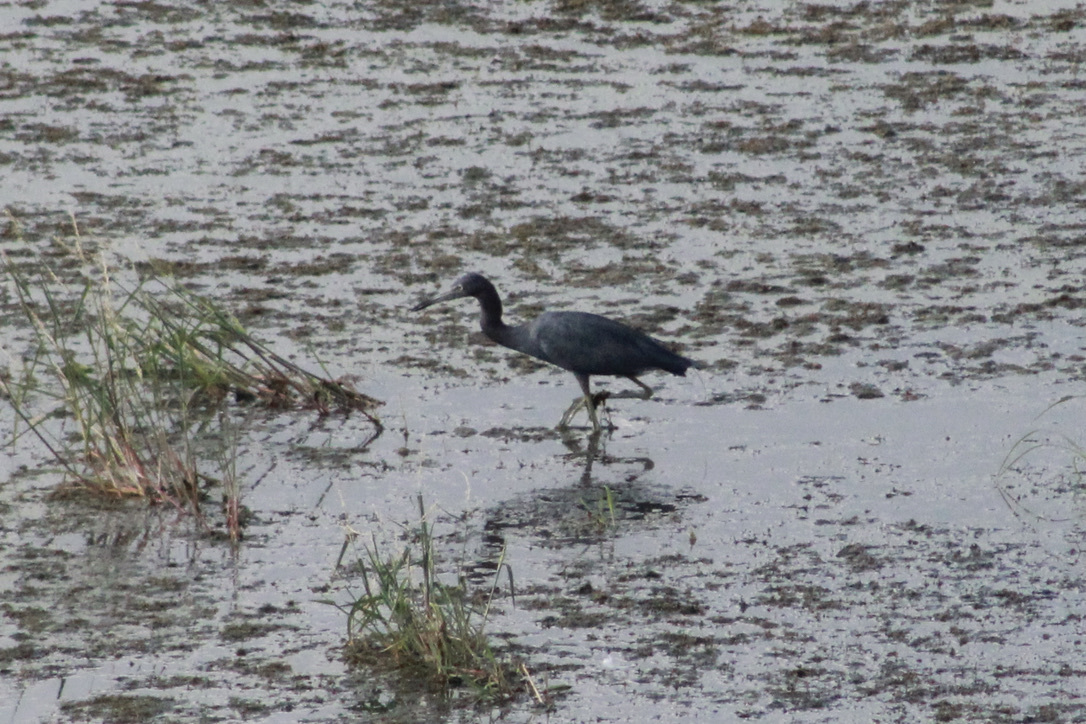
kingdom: Animalia
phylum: Chordata
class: Aves
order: Pelecaniformes
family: Ardeidae
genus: Egretta
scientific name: Egretta caerulea
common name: Little blue heron
